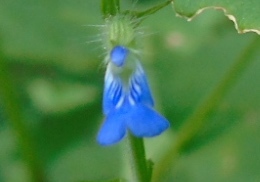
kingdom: Plantae
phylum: Tracheophyta
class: Magnoliopsida
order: Lamiales
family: Lamiaceae
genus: Salvia
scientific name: Salvia misella
